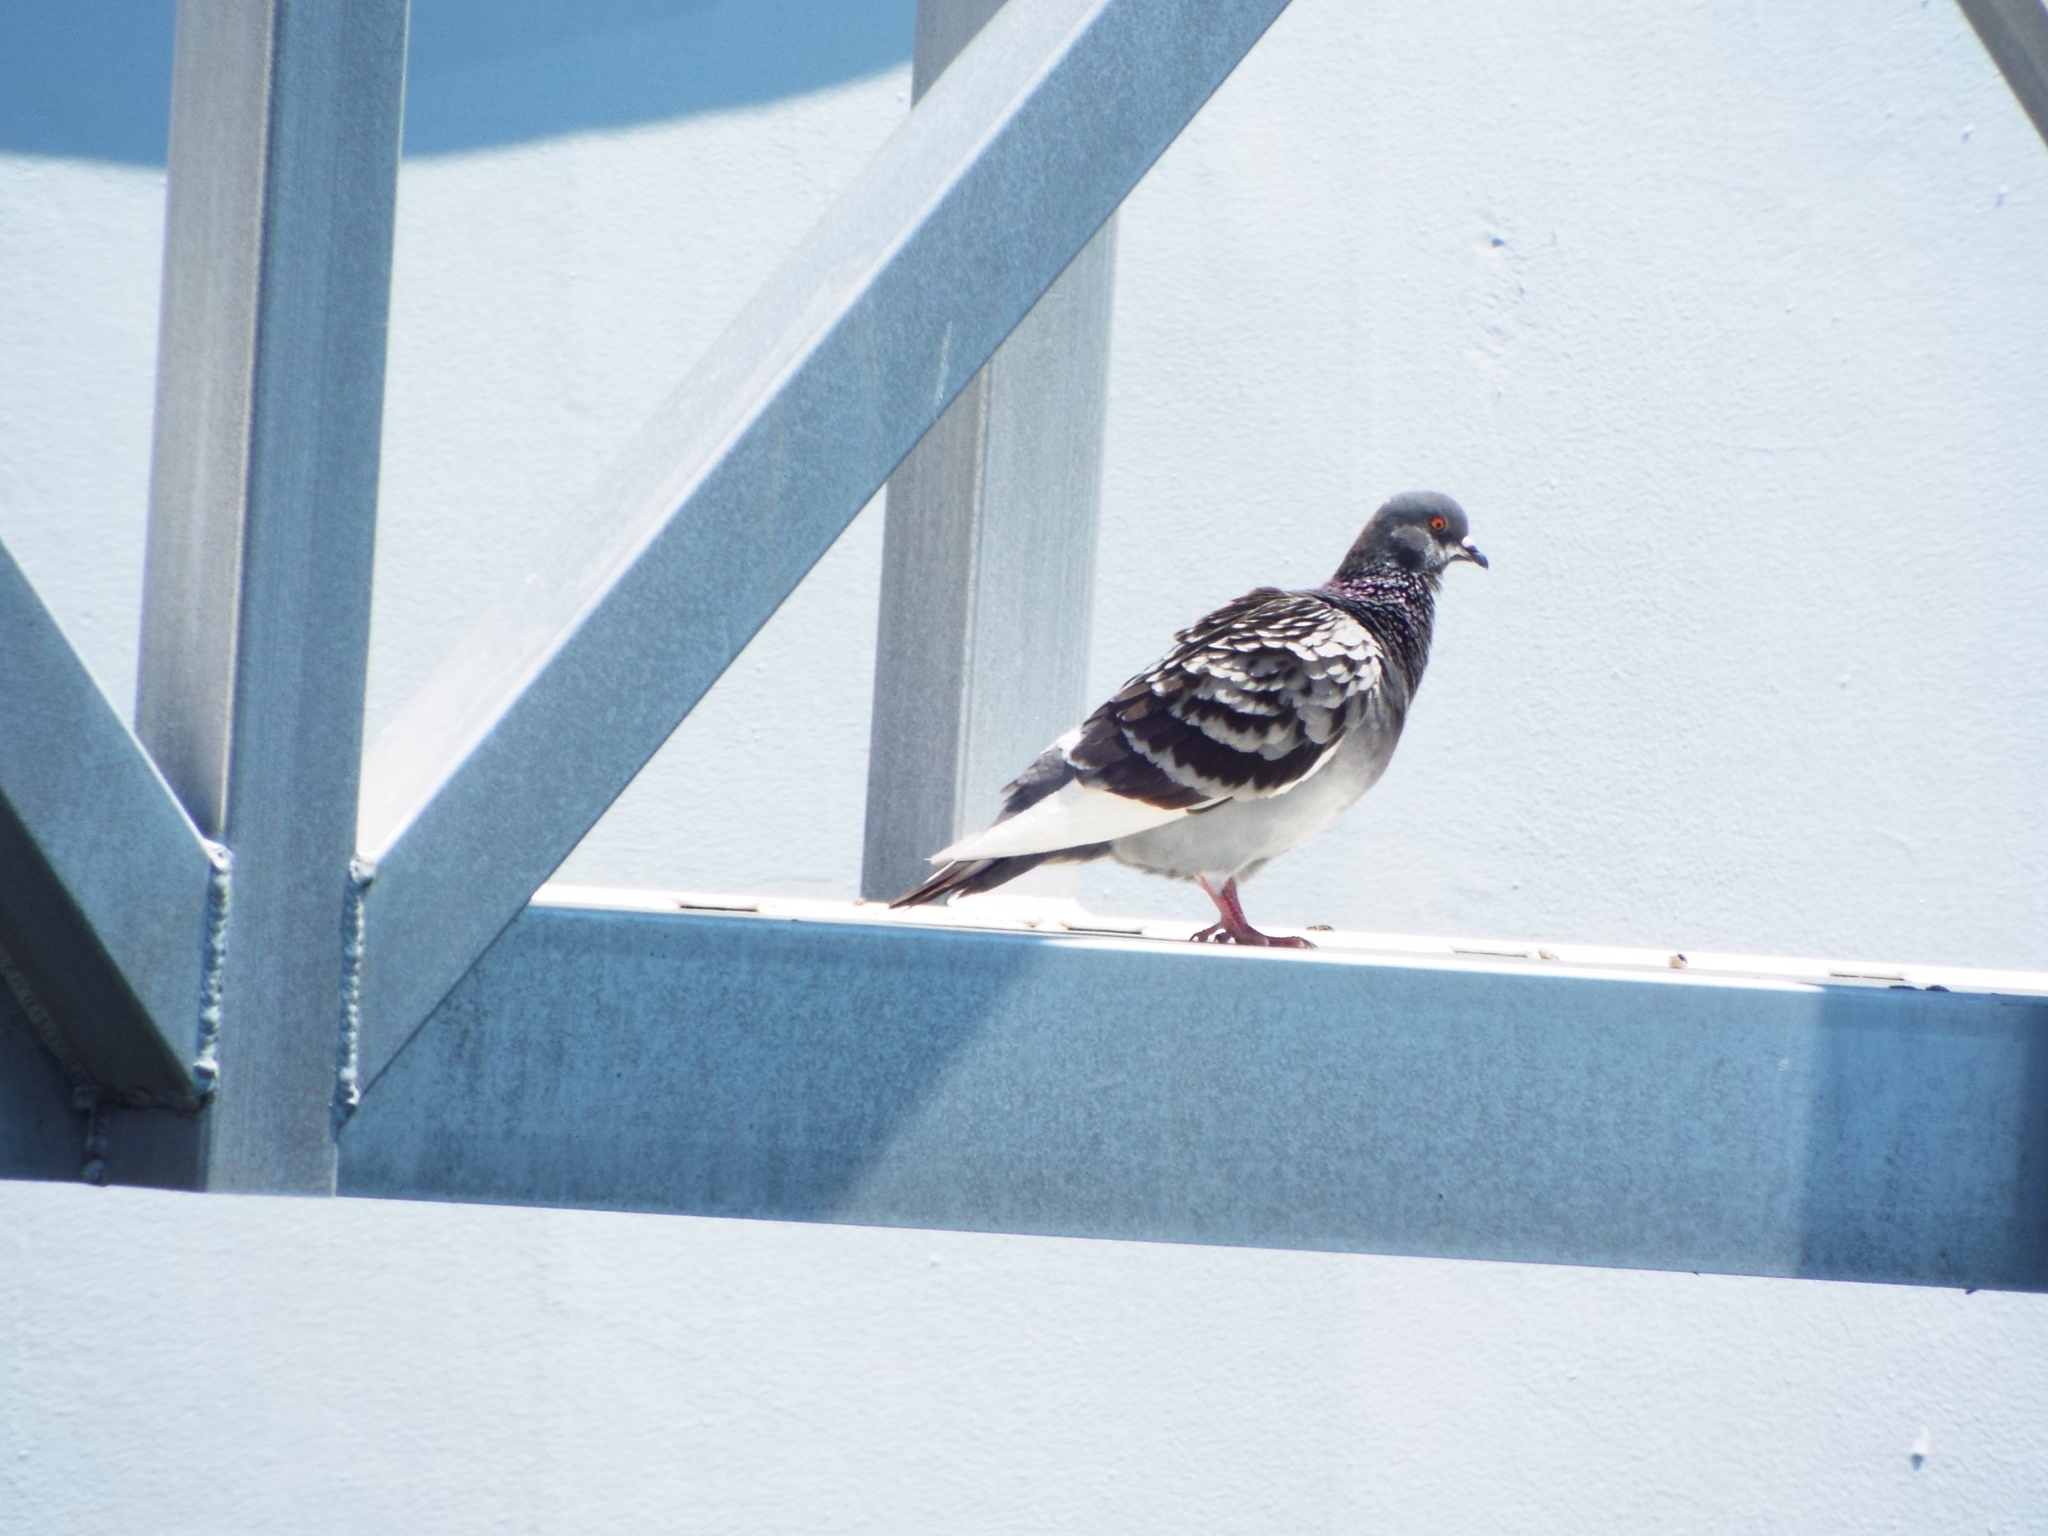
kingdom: Animalia
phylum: Chordata
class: Aves
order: Columbiformes
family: Columbidae
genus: Columba
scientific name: Columba livia
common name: Rock pigeon
